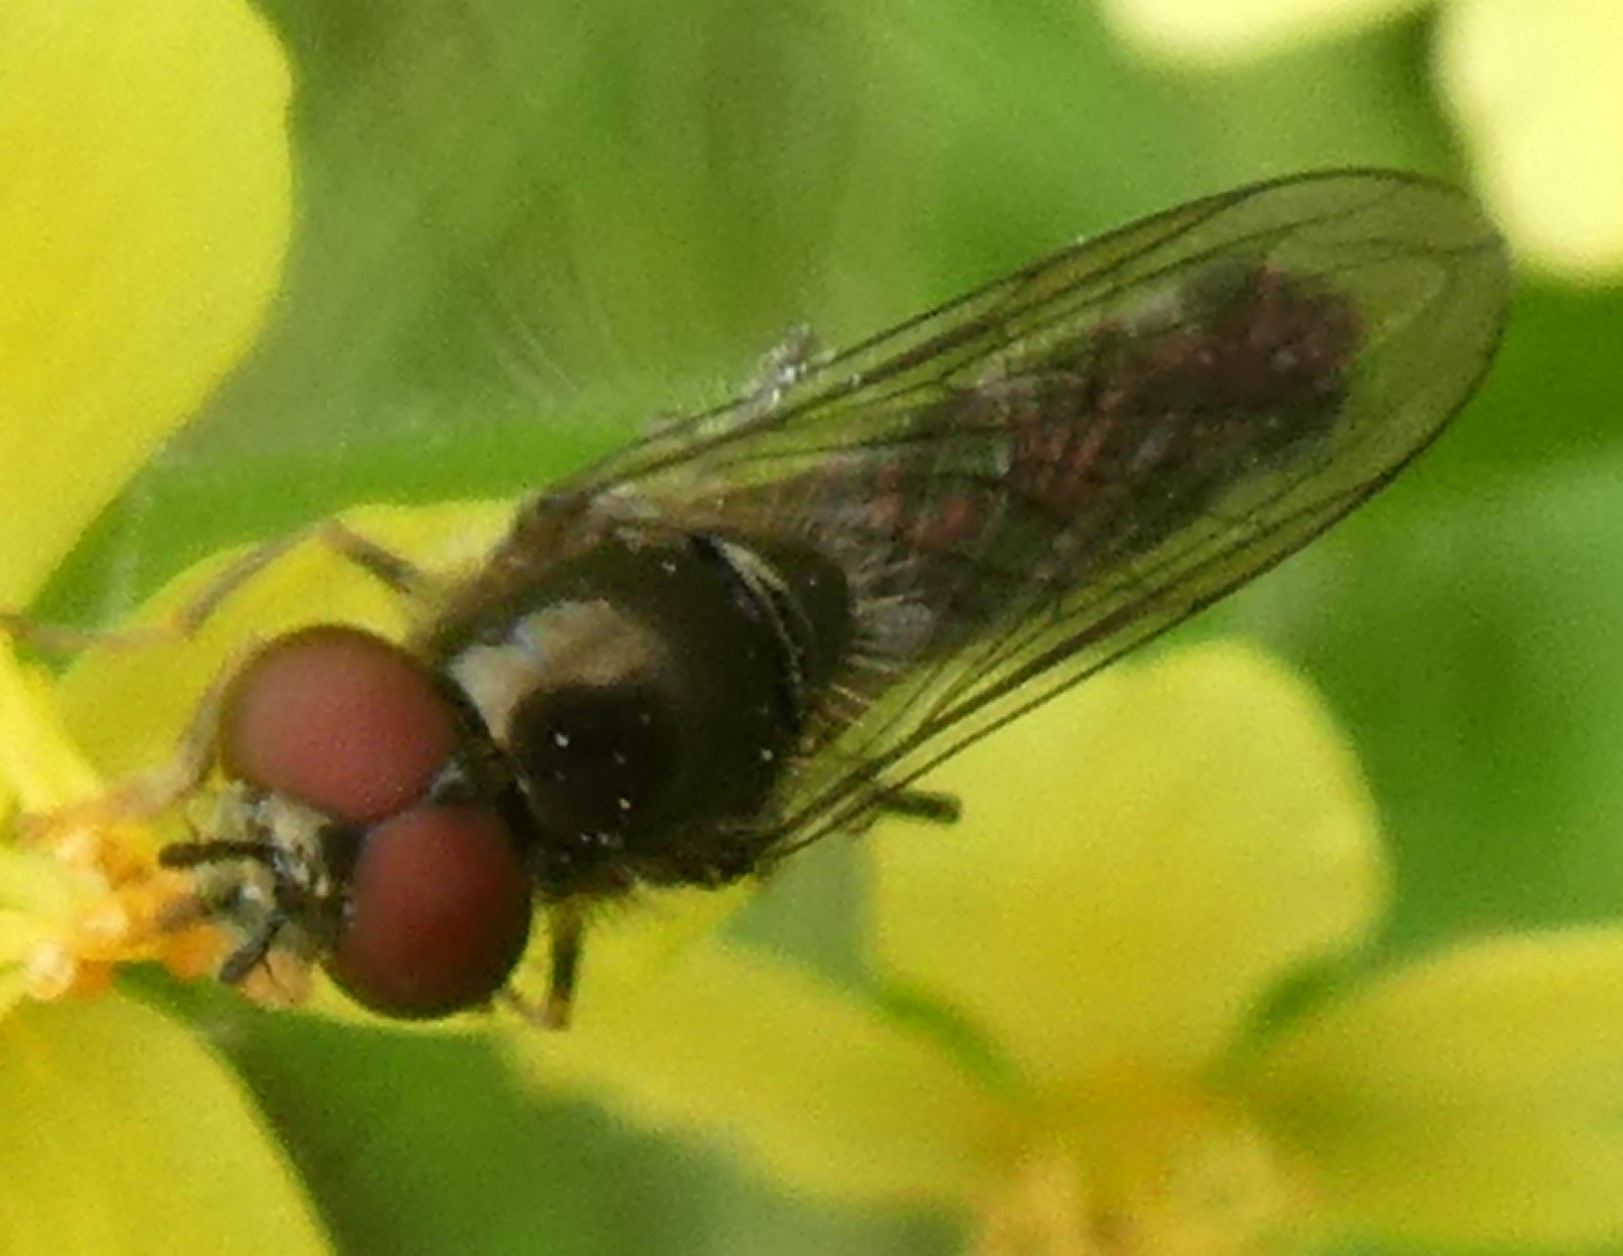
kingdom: Animalia
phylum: Arthropoda
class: Insecta
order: Diptera
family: Syrphidae
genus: Platycheirus
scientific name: Platycheirus
